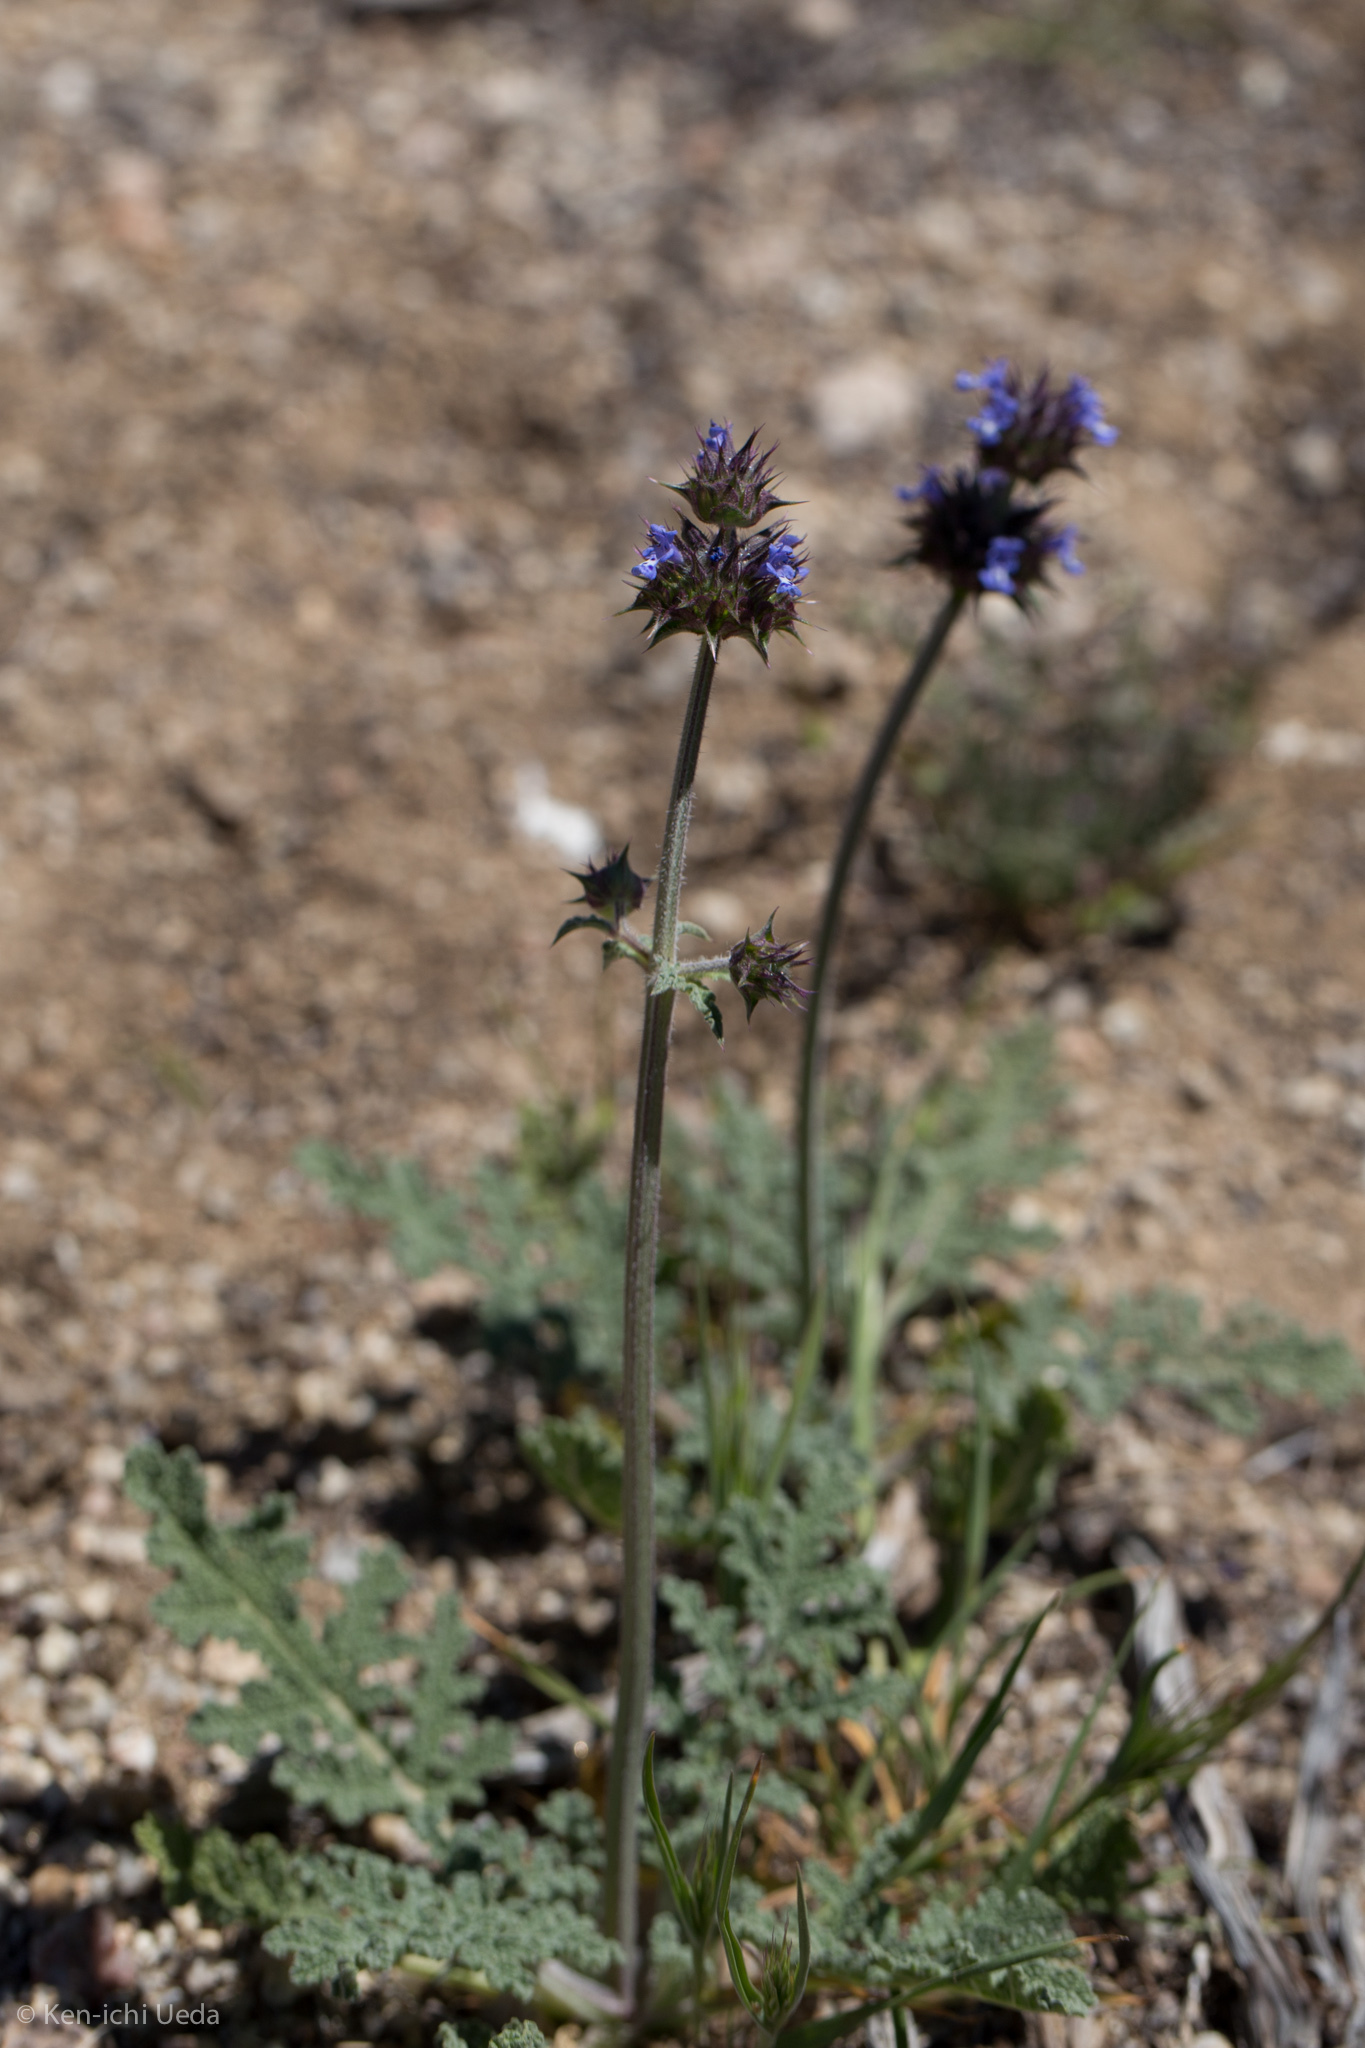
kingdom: Plantae
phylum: Tracheophyta
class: Magnoliopsida
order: Lamiales
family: Lamiaceae
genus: Salvia
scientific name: Salvia columbariae
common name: Chia
